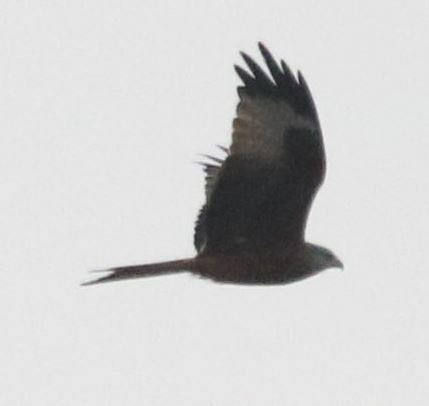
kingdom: Animalia
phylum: Chordata
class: Aves
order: Accipitriformes
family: Accipitridae
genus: Milvus
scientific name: Milvus milvus
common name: Red kite
